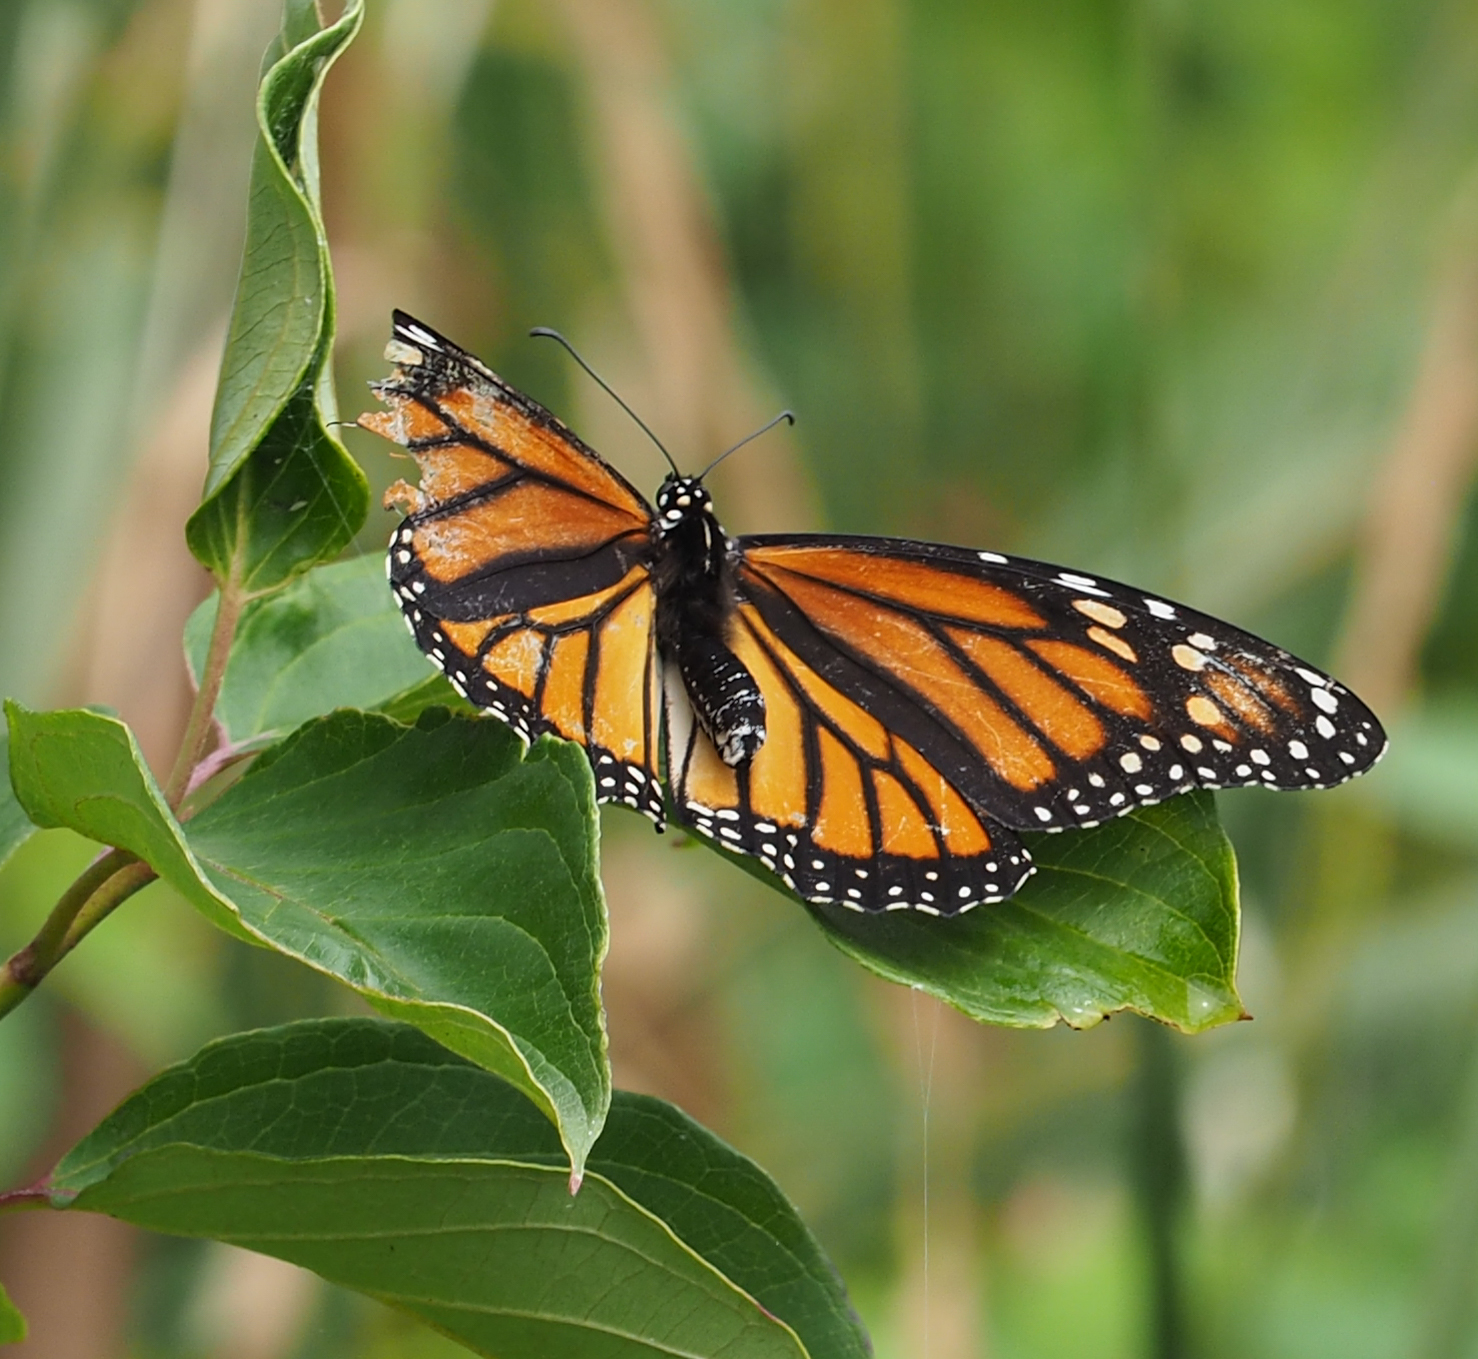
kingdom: Animalia
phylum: Arthropoda
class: Insecta
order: Lepidoptera
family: Nymphalidae
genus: Danaus
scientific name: Danaus plexippus
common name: Monarch
